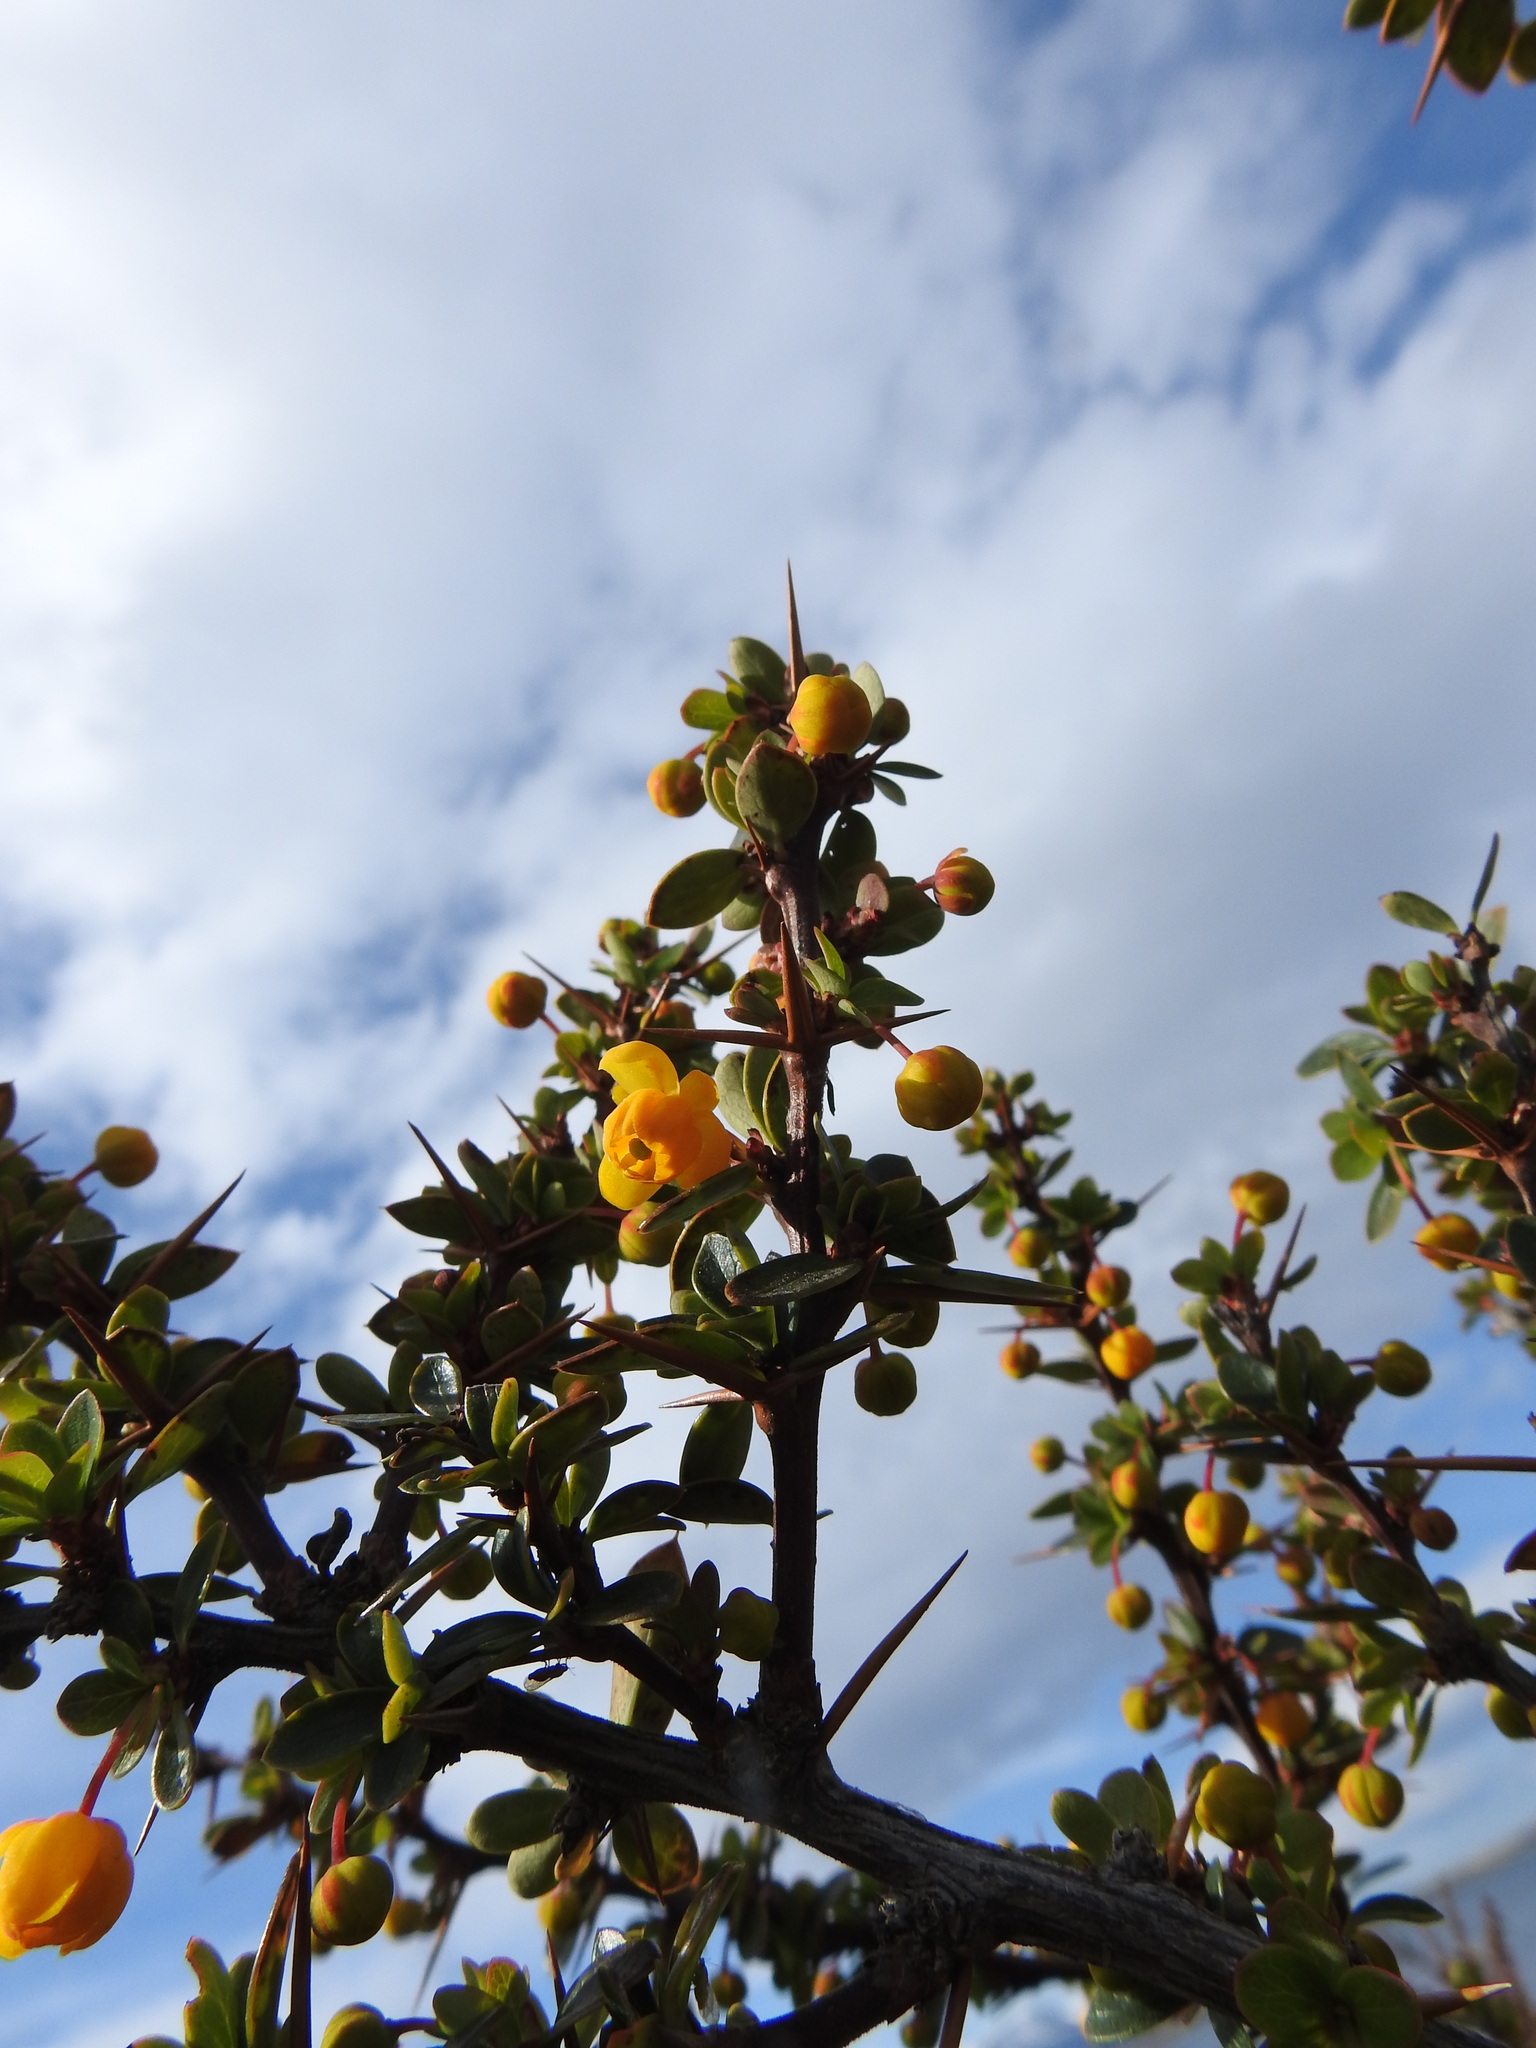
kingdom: Plantae
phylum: Tracheophyta
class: Magnoliopsida
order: Ranunculales
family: Berberidaceae
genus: Berberis
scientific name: Berberis microphylla
